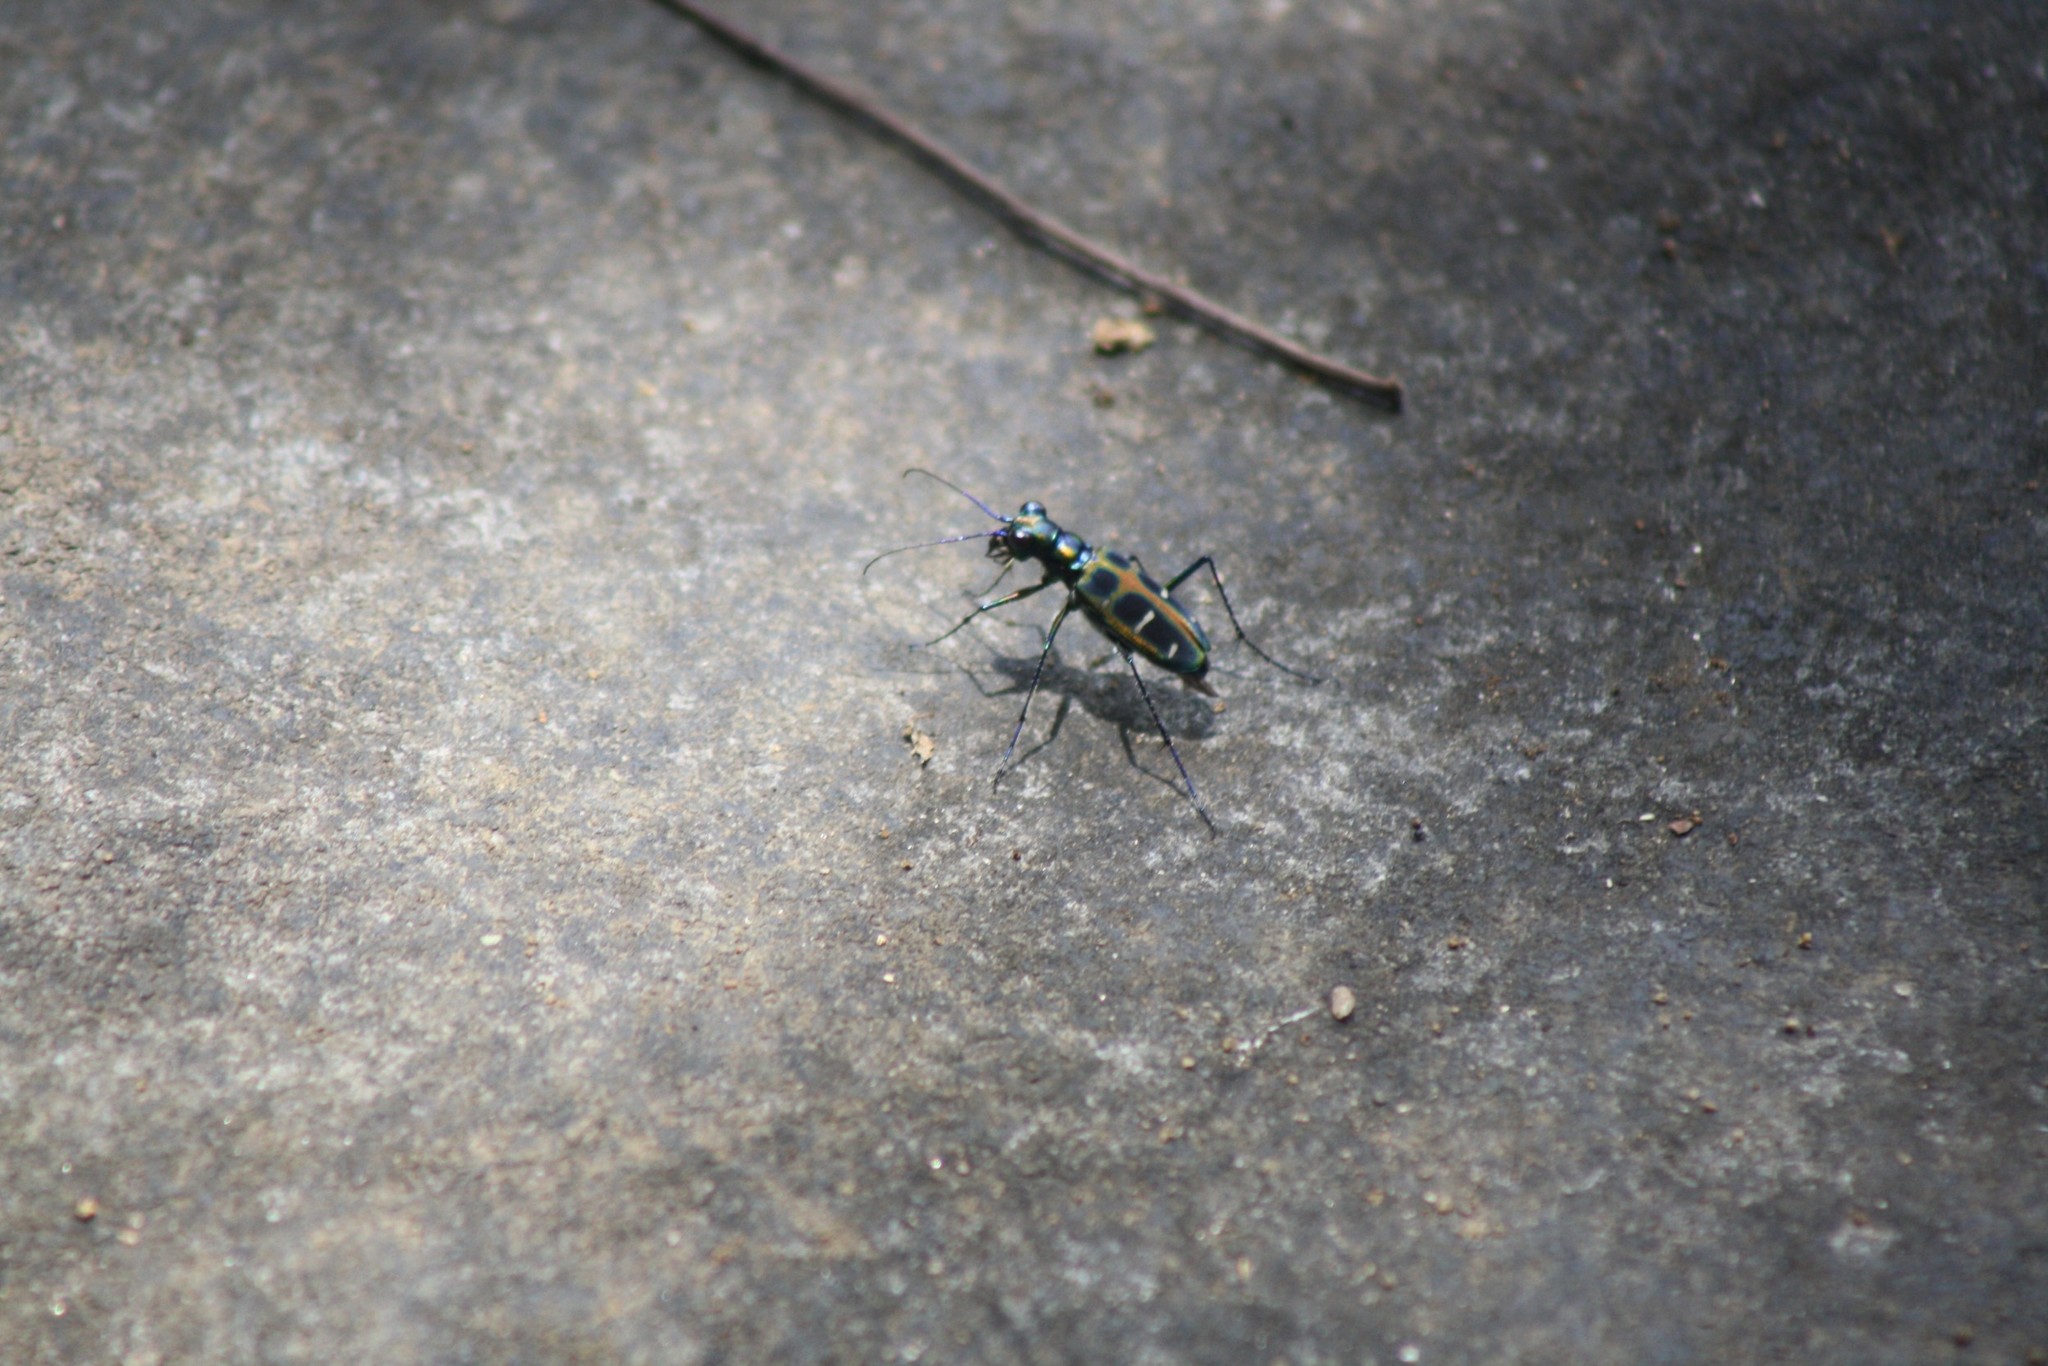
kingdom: Animalia
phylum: Arthropoda
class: Insecta
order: Coleoptera
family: Carabidae
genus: Cicindela
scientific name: Cicindela barmanica
